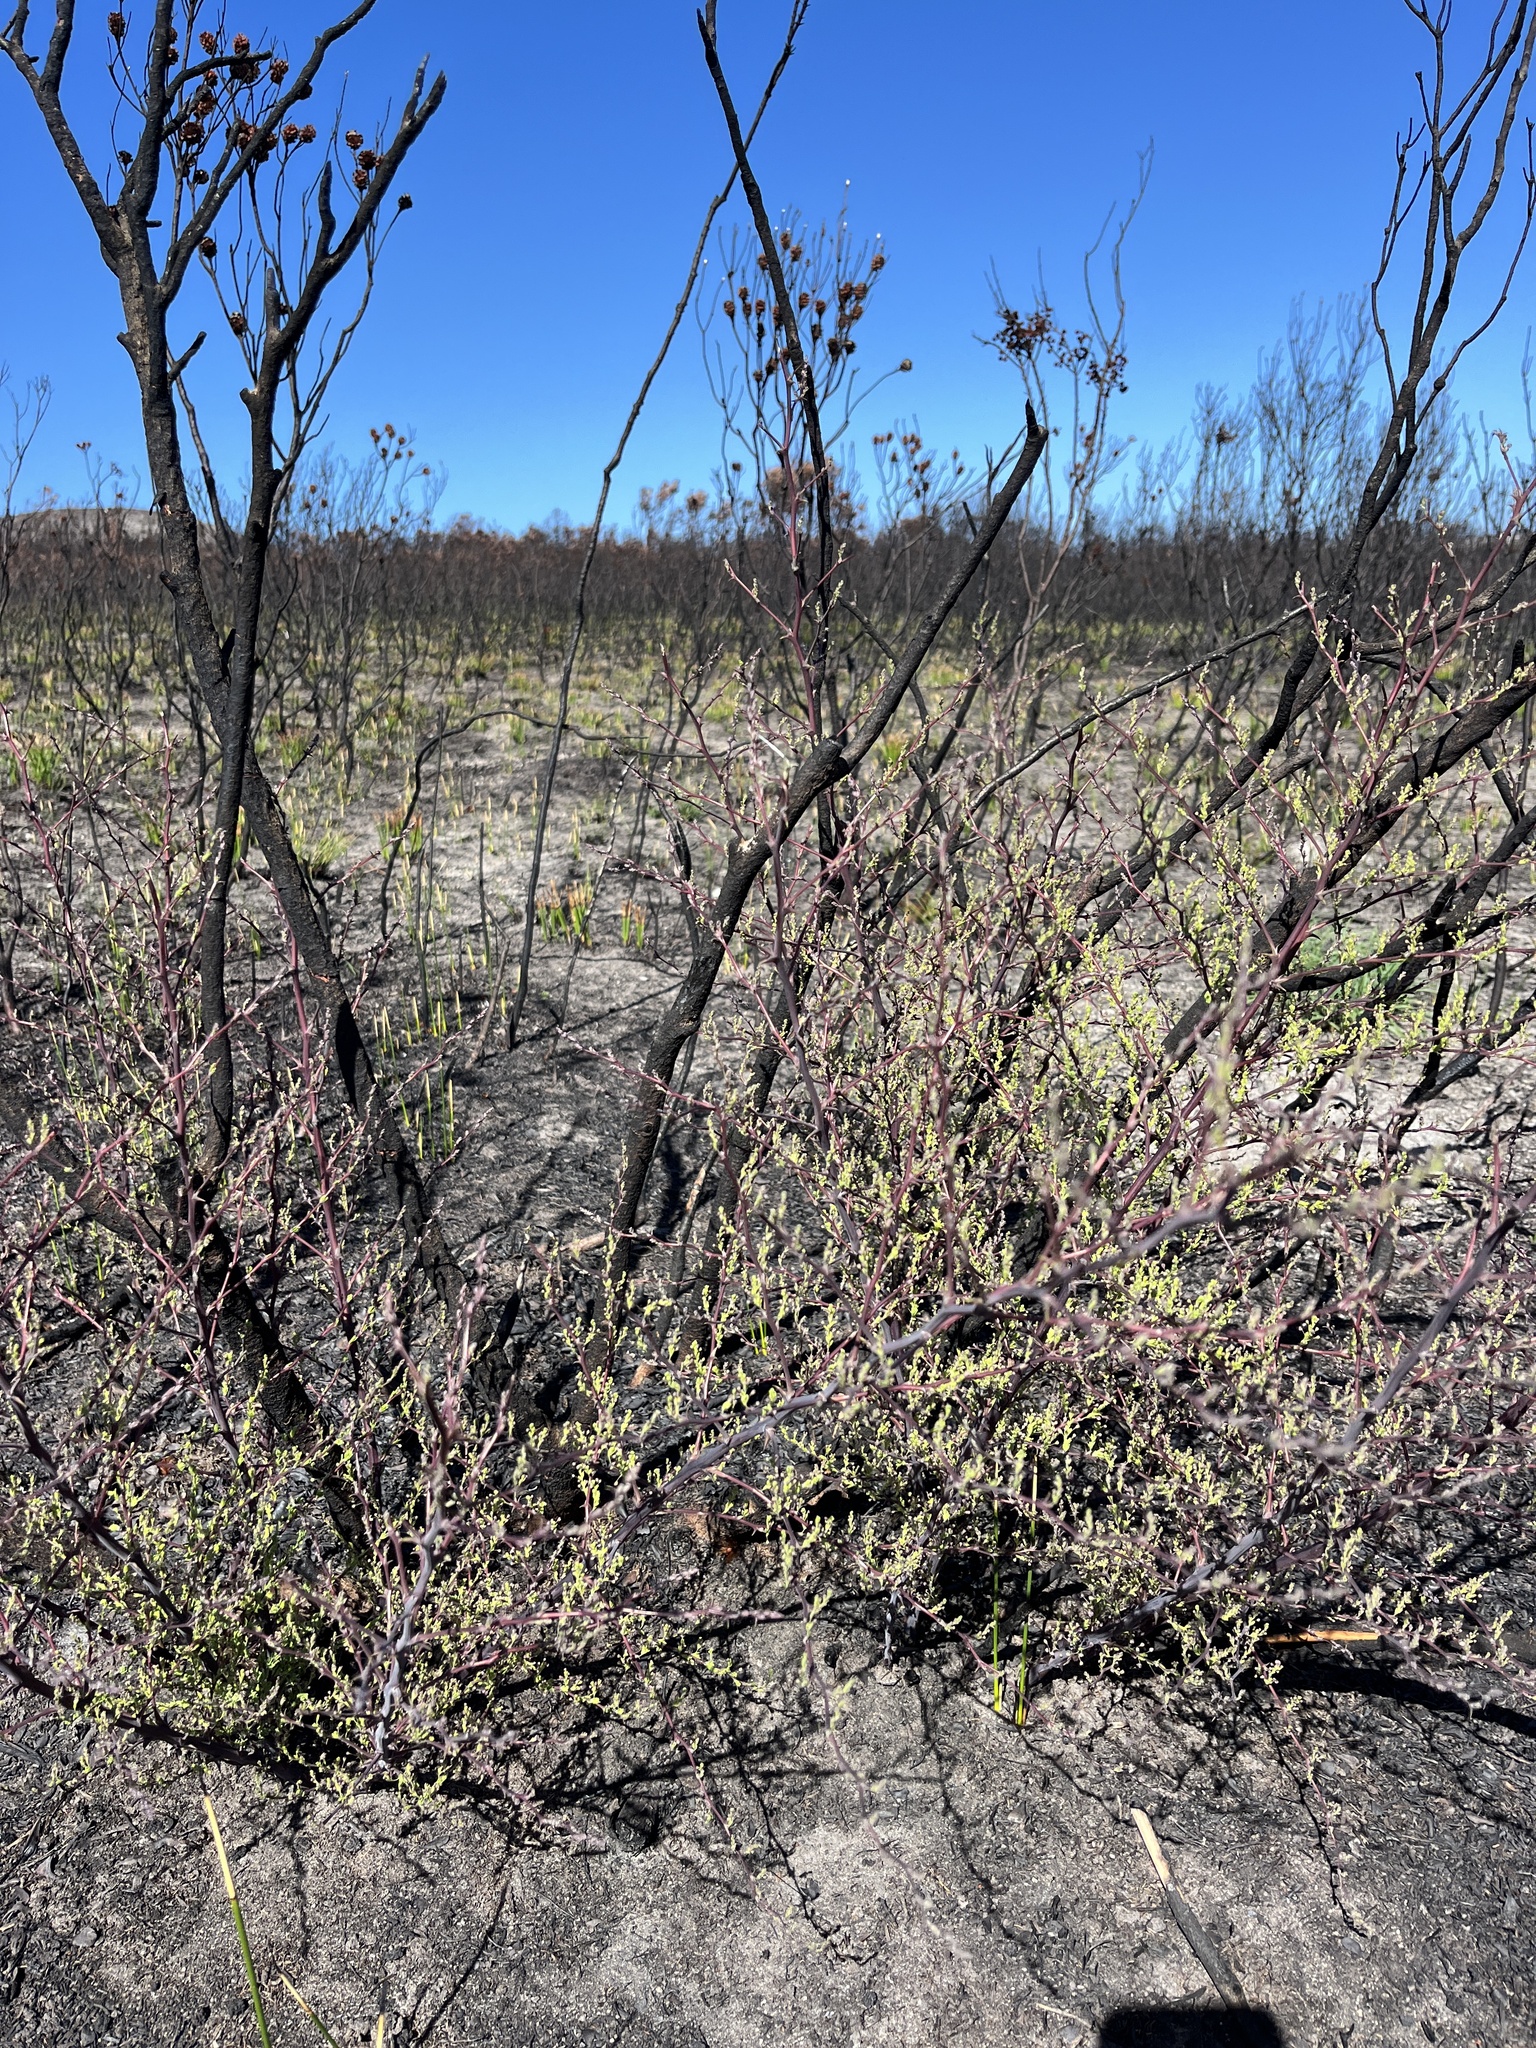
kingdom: Plantae
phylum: Tracheophyta
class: Liliopsida
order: Asparagales
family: Asparagaceae
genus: Asparagus
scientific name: Asparagus rubicundus
